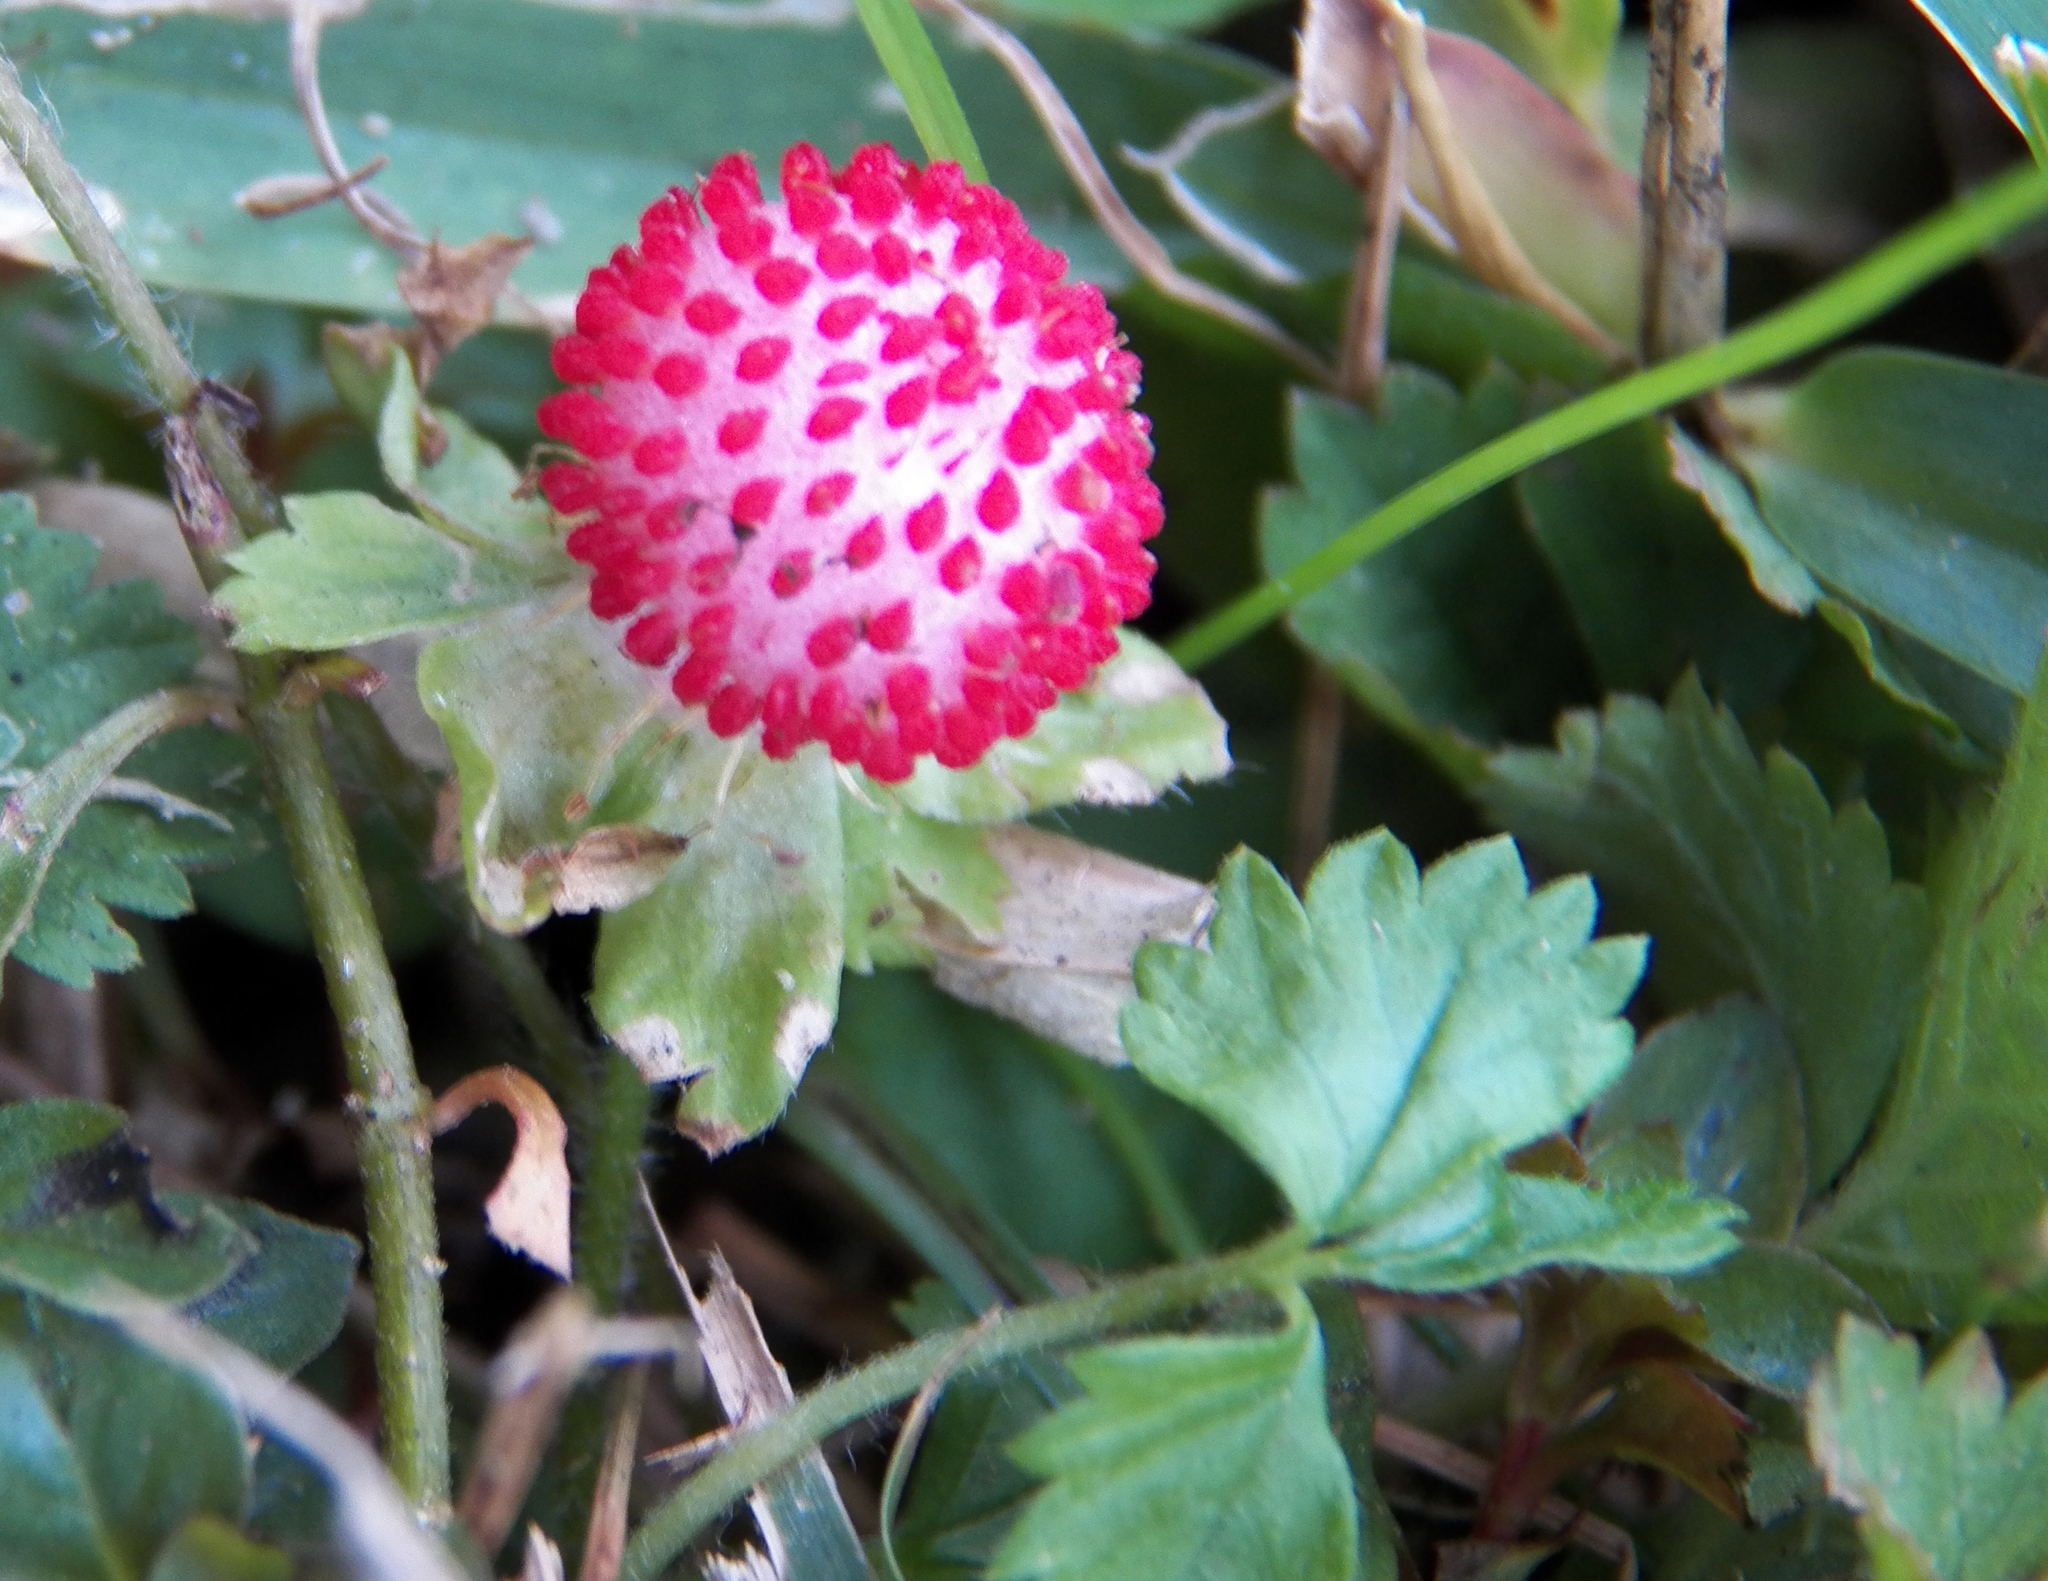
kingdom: Plantae
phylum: Tracheophyta
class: Magnoliopsida
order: Rosales
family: Rosaceae
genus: Potentilla
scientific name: Potentilla indica
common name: Yellow-flowered strawberry
